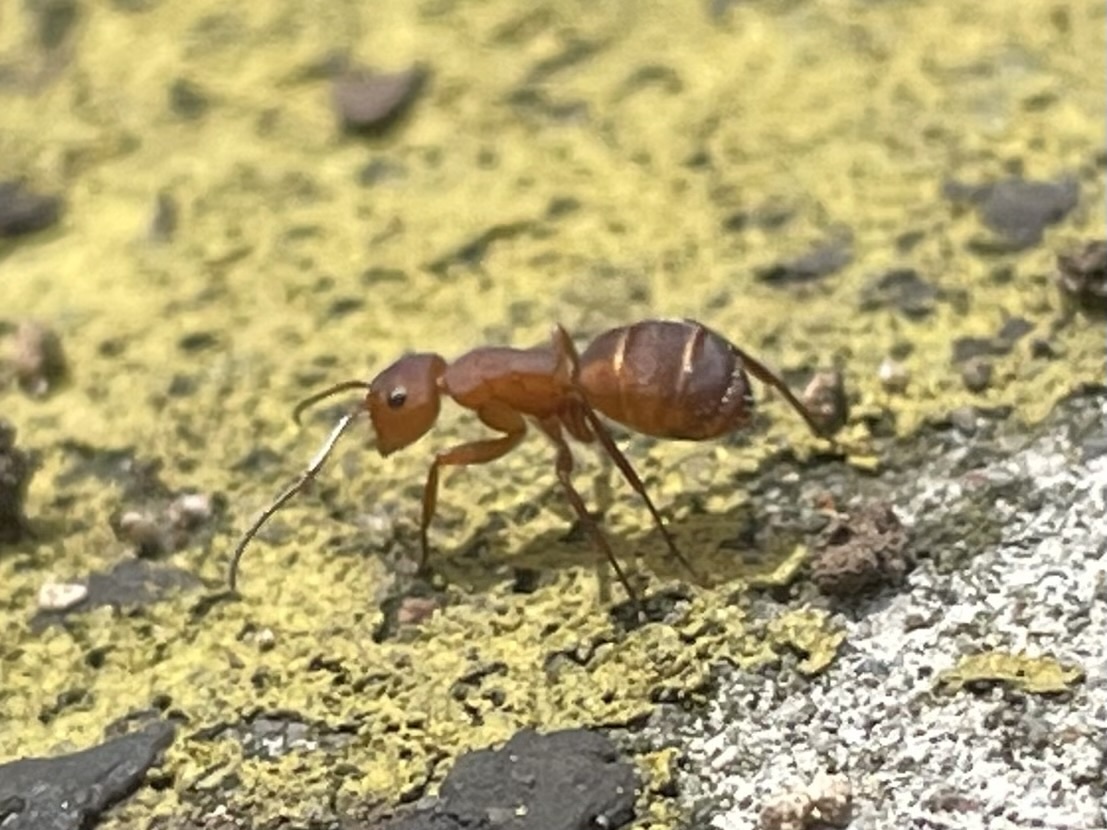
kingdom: Animalia
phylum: Arthropoda
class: Insecta
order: Hymenoptera
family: Formicidae
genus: Camponotus
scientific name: Camponotus rectangularis
